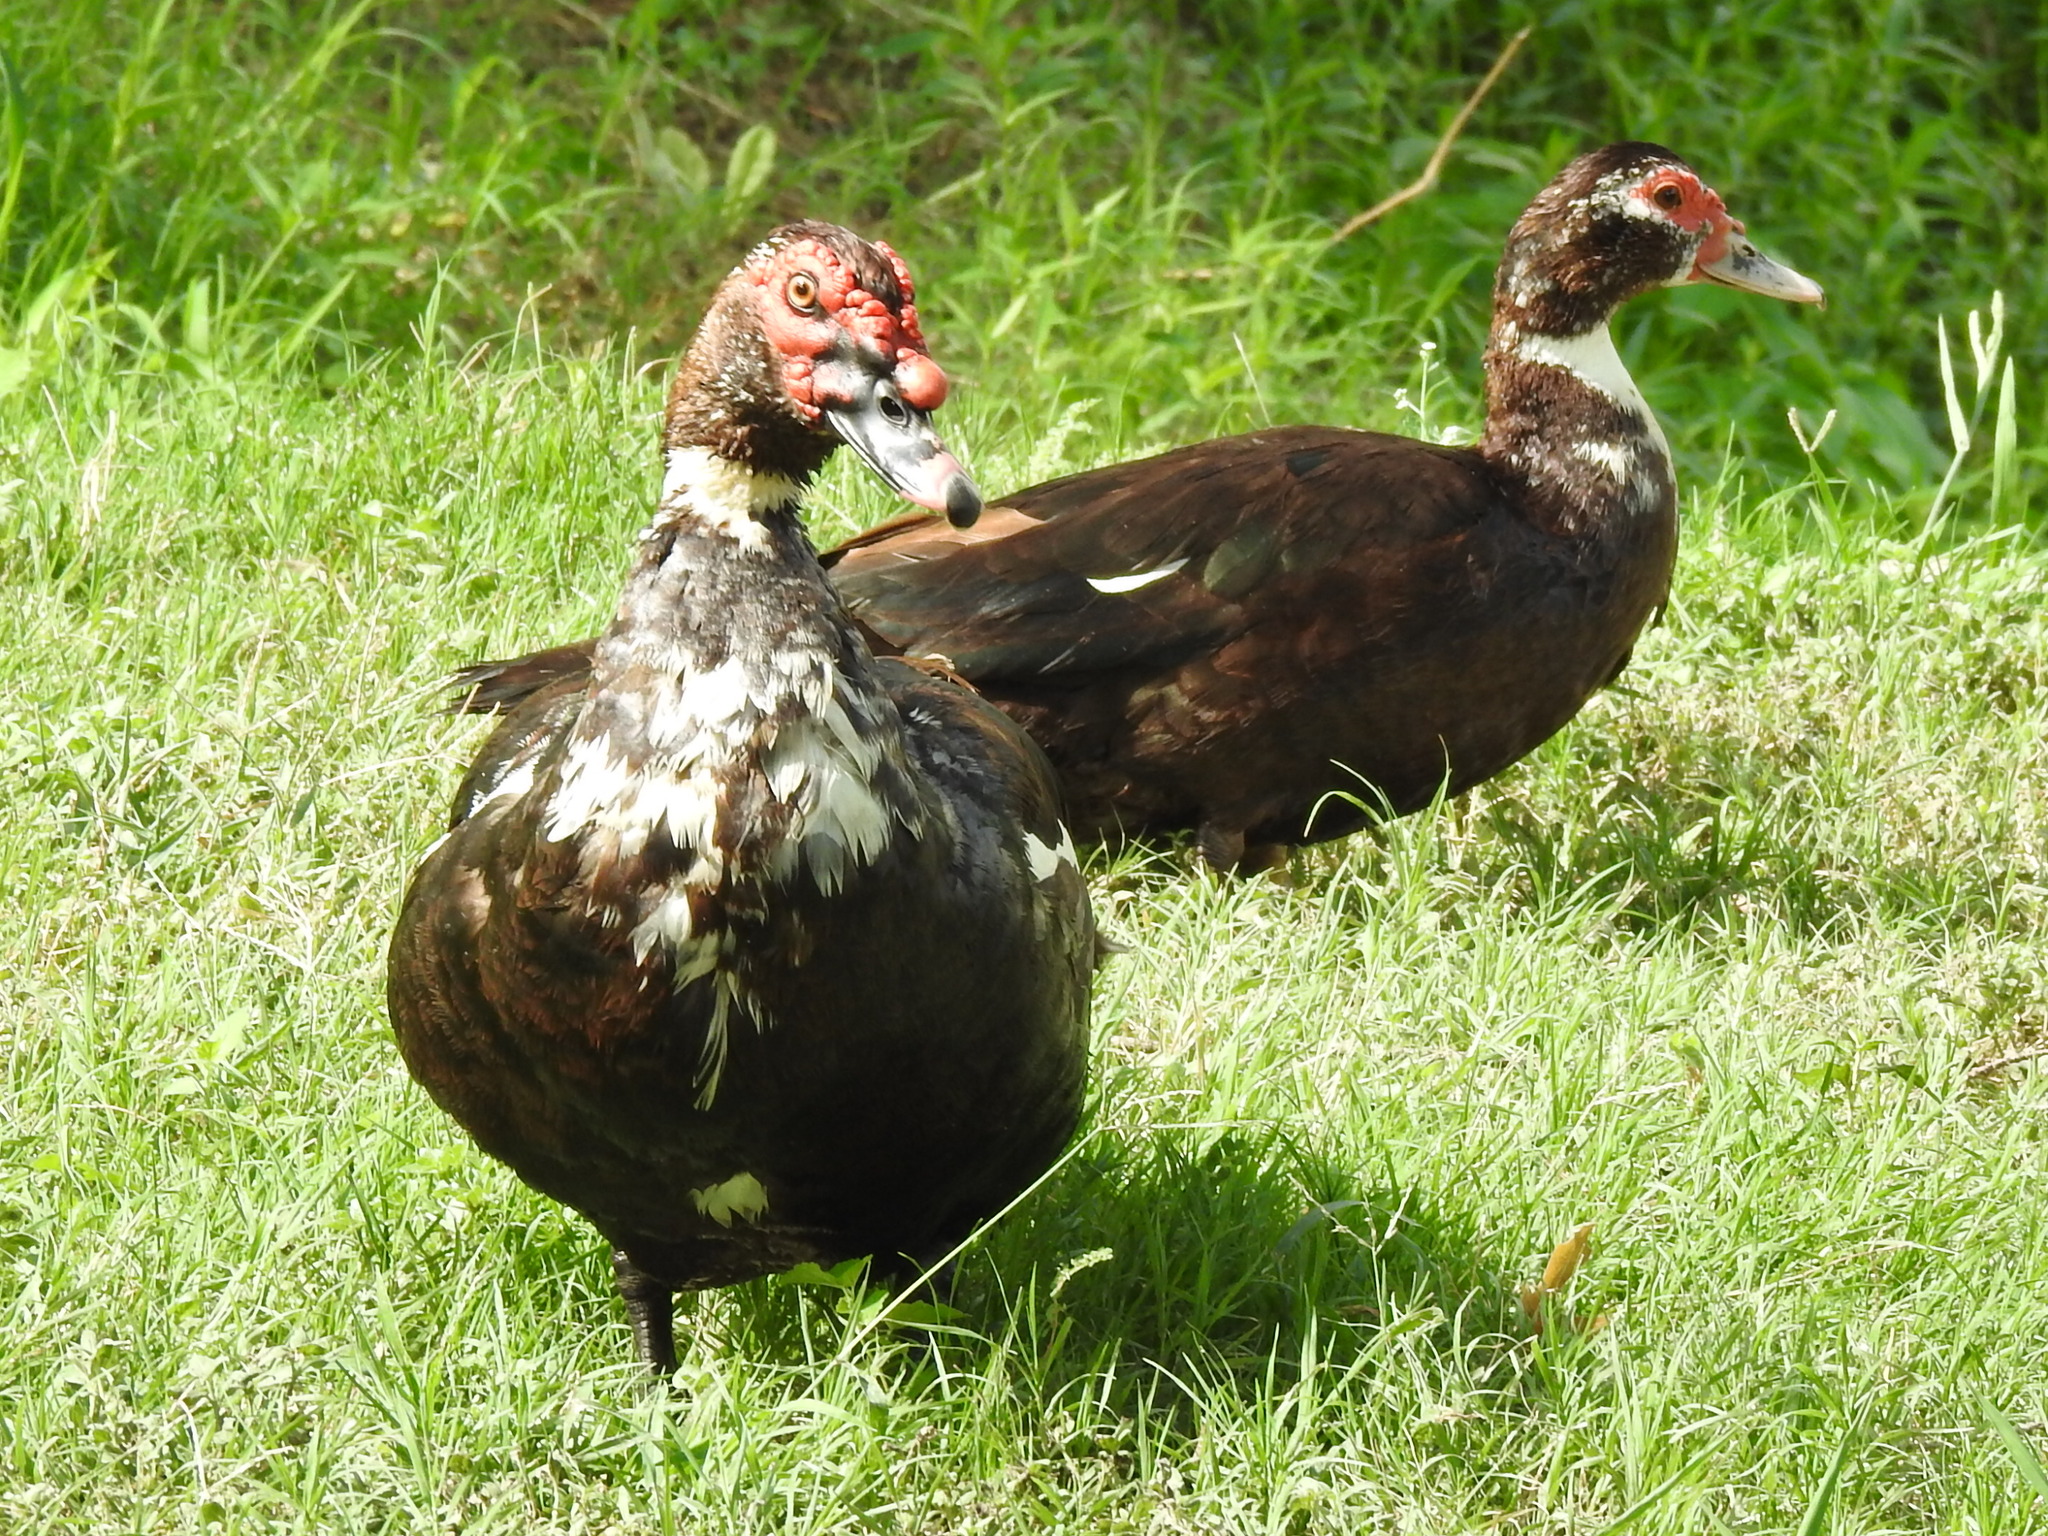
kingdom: Animalia
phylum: Chordata
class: Aves
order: Anseriformes
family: Anatidae
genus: Cairina
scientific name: Cairina moschata
